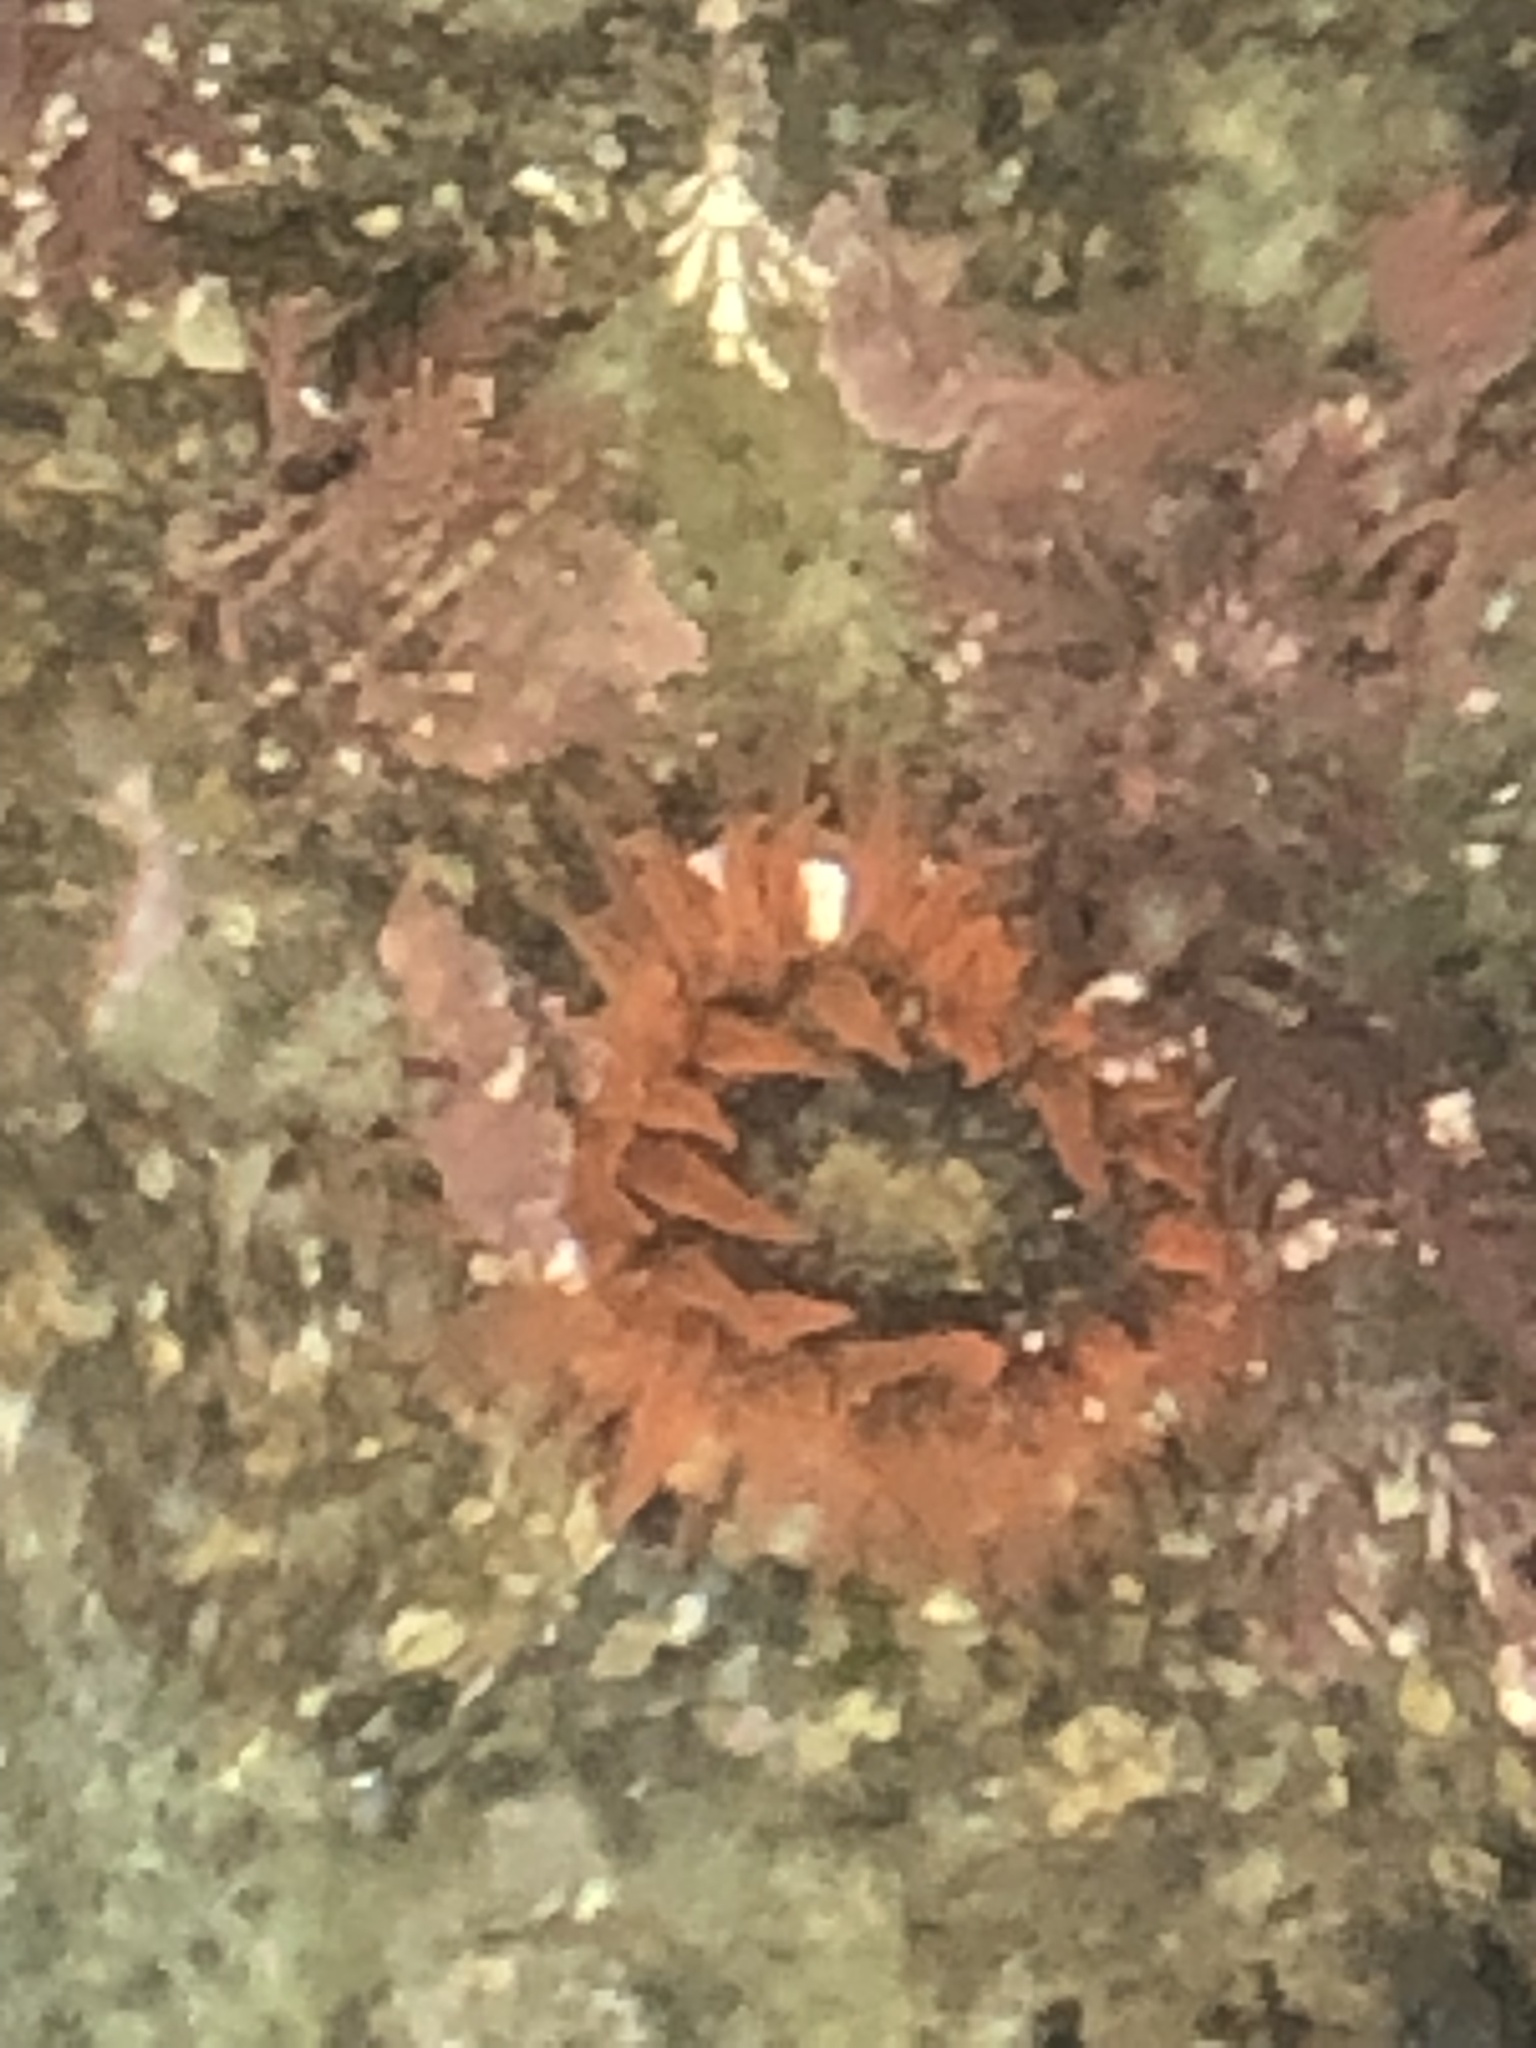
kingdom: Animalia
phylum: Cnidaria
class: Anthozoa
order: Actiniaria
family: Actiniidae
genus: Anthopleura
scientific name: Anthopleura artemisia
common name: Buried sea anemone
